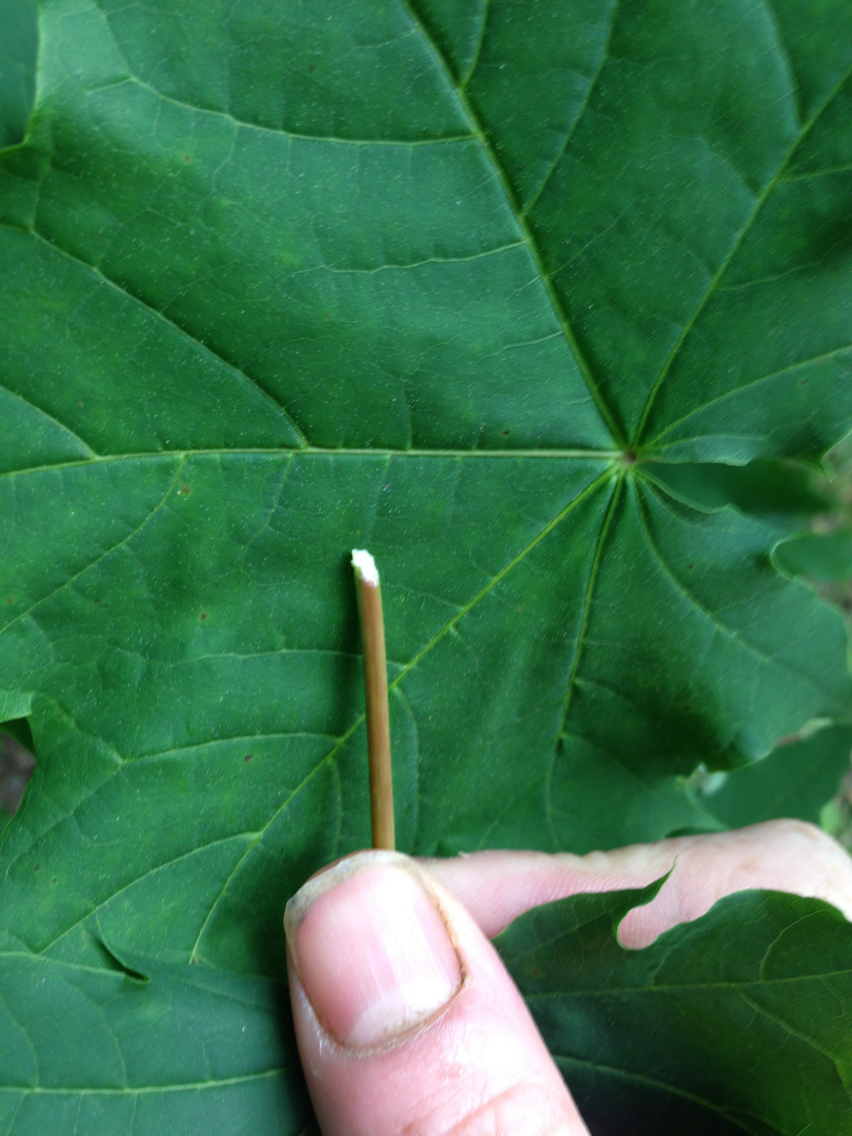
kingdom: Plantae
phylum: Tracheophyta
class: Magnoliopsida
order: Sapindales
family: Sapindaceae
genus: Acer
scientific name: Acer platanoides
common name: Norway maple
